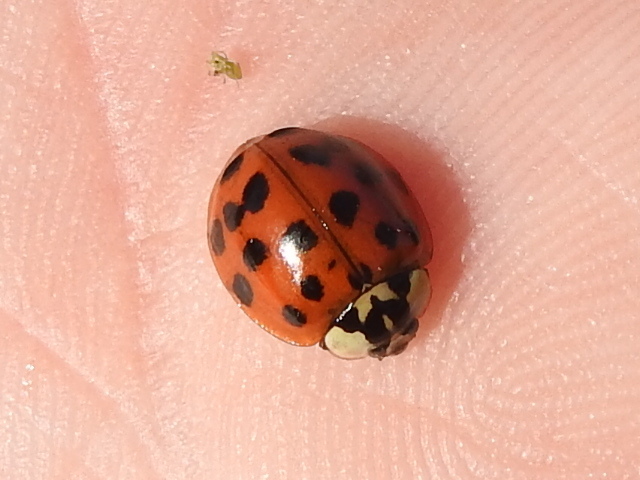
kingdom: Animalia
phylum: Arthropoda
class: Insecta
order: Coleoptera
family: Coccinellidae
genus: Harmonia
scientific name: Harmonia axyridis
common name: Harlequin ladybird
